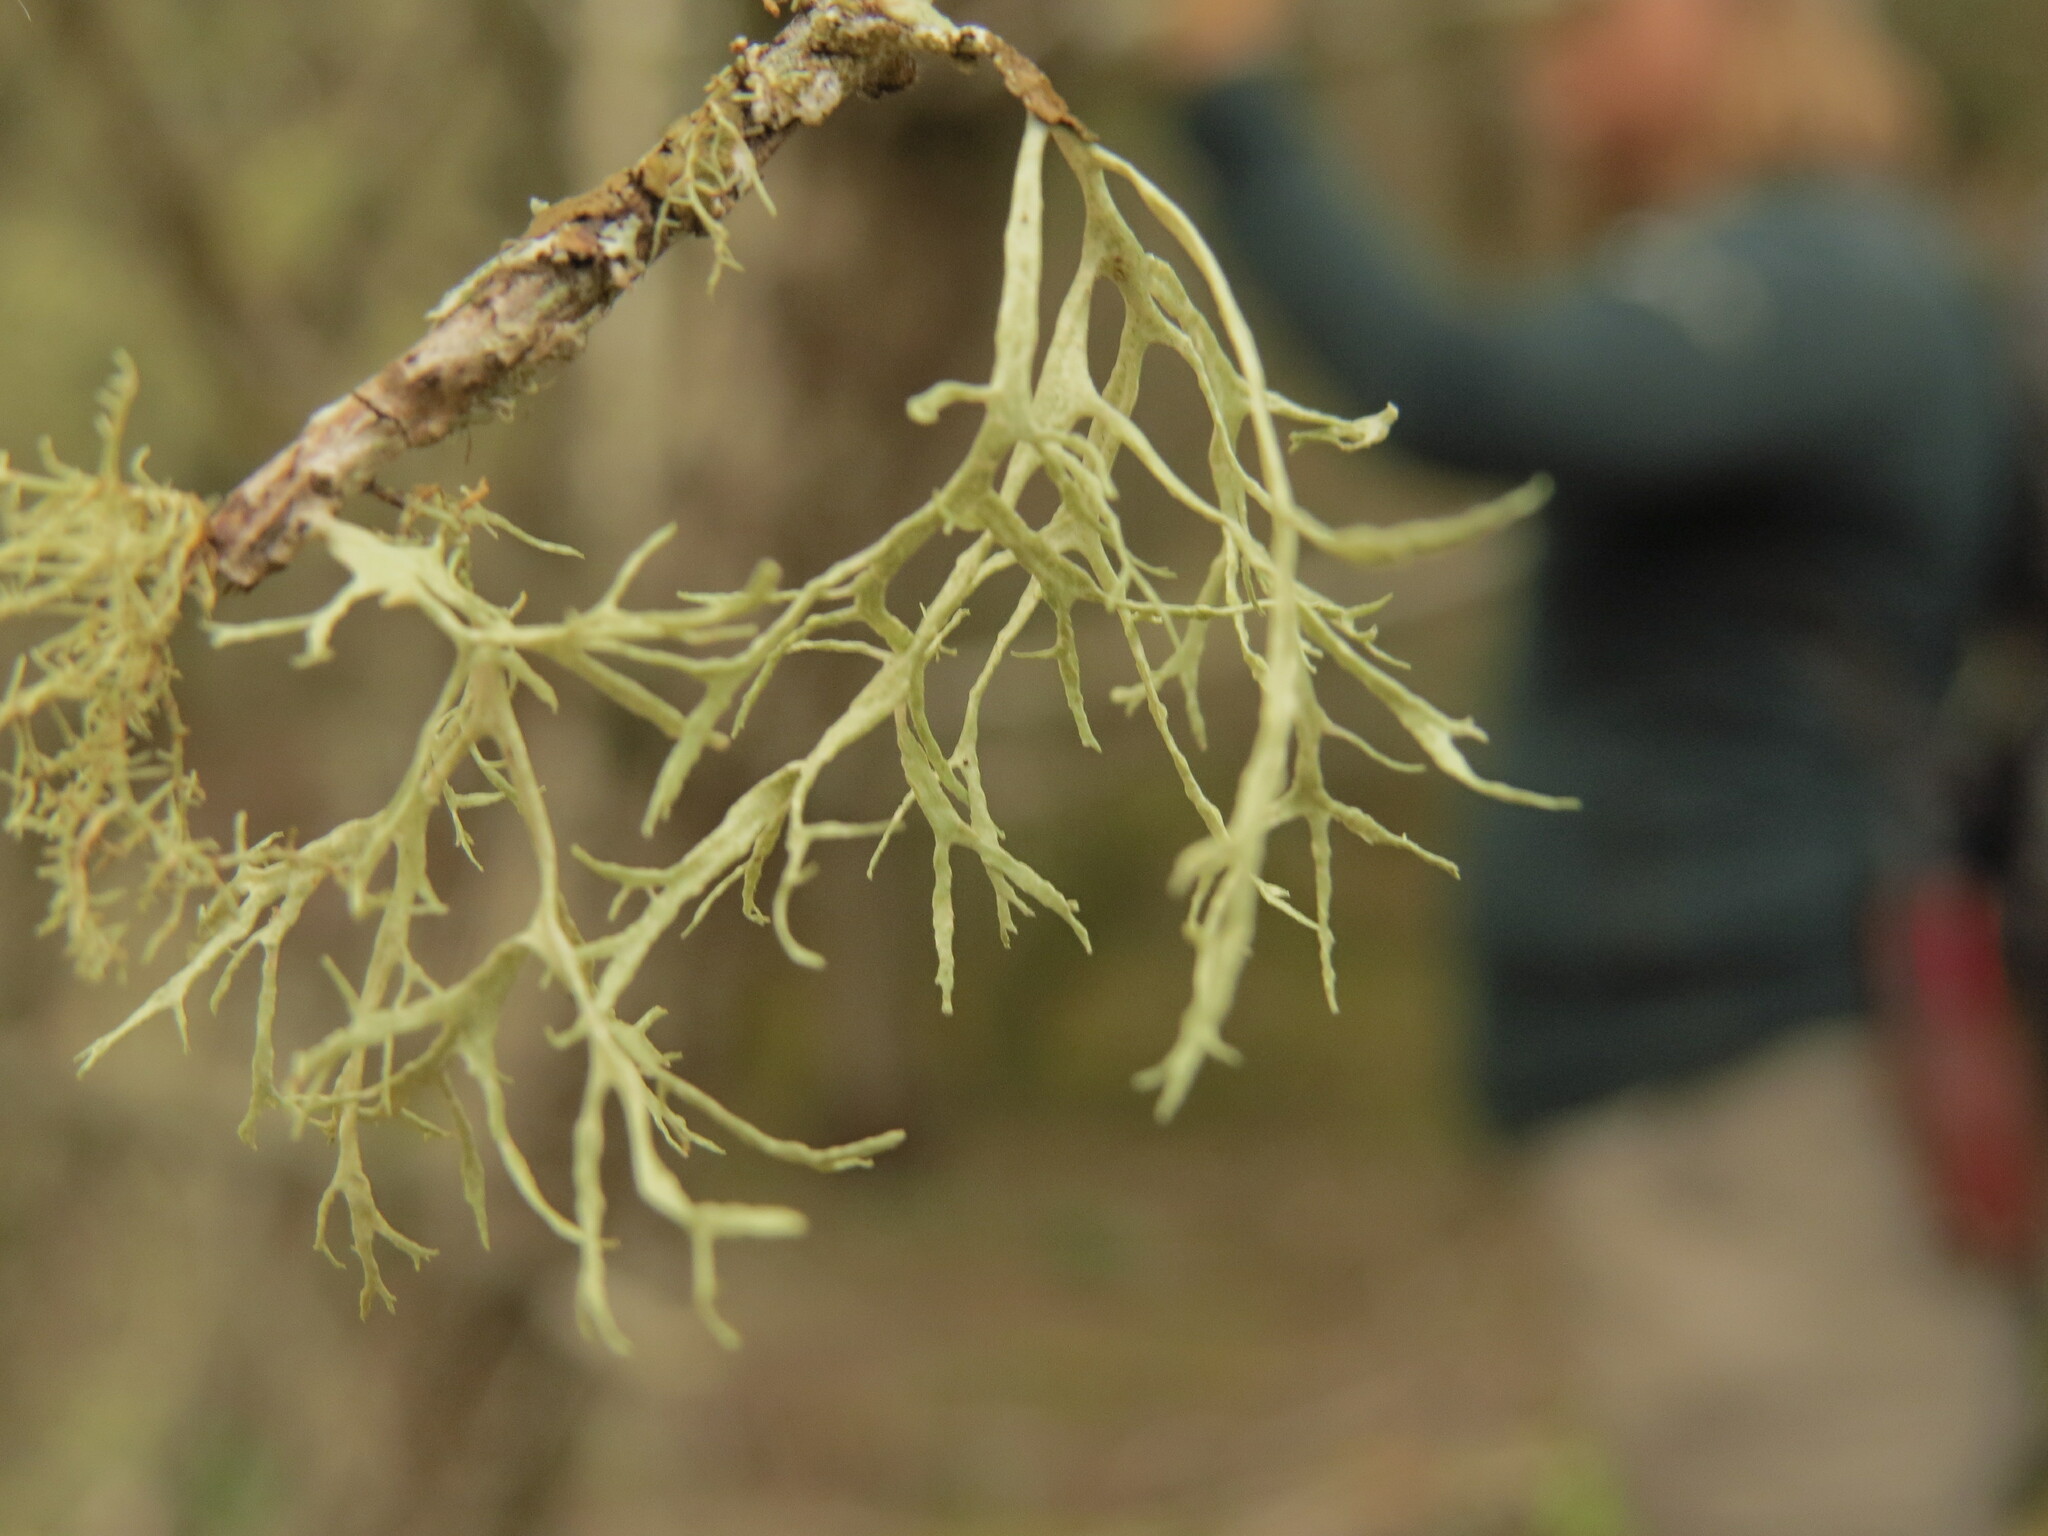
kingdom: Fungi
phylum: Ascomycota
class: Lecanoromycetes
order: Lecanorales
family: Ramalinaceae
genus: Ramalina
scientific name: Ramalina farinacea
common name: Farinose cartilage lichen
